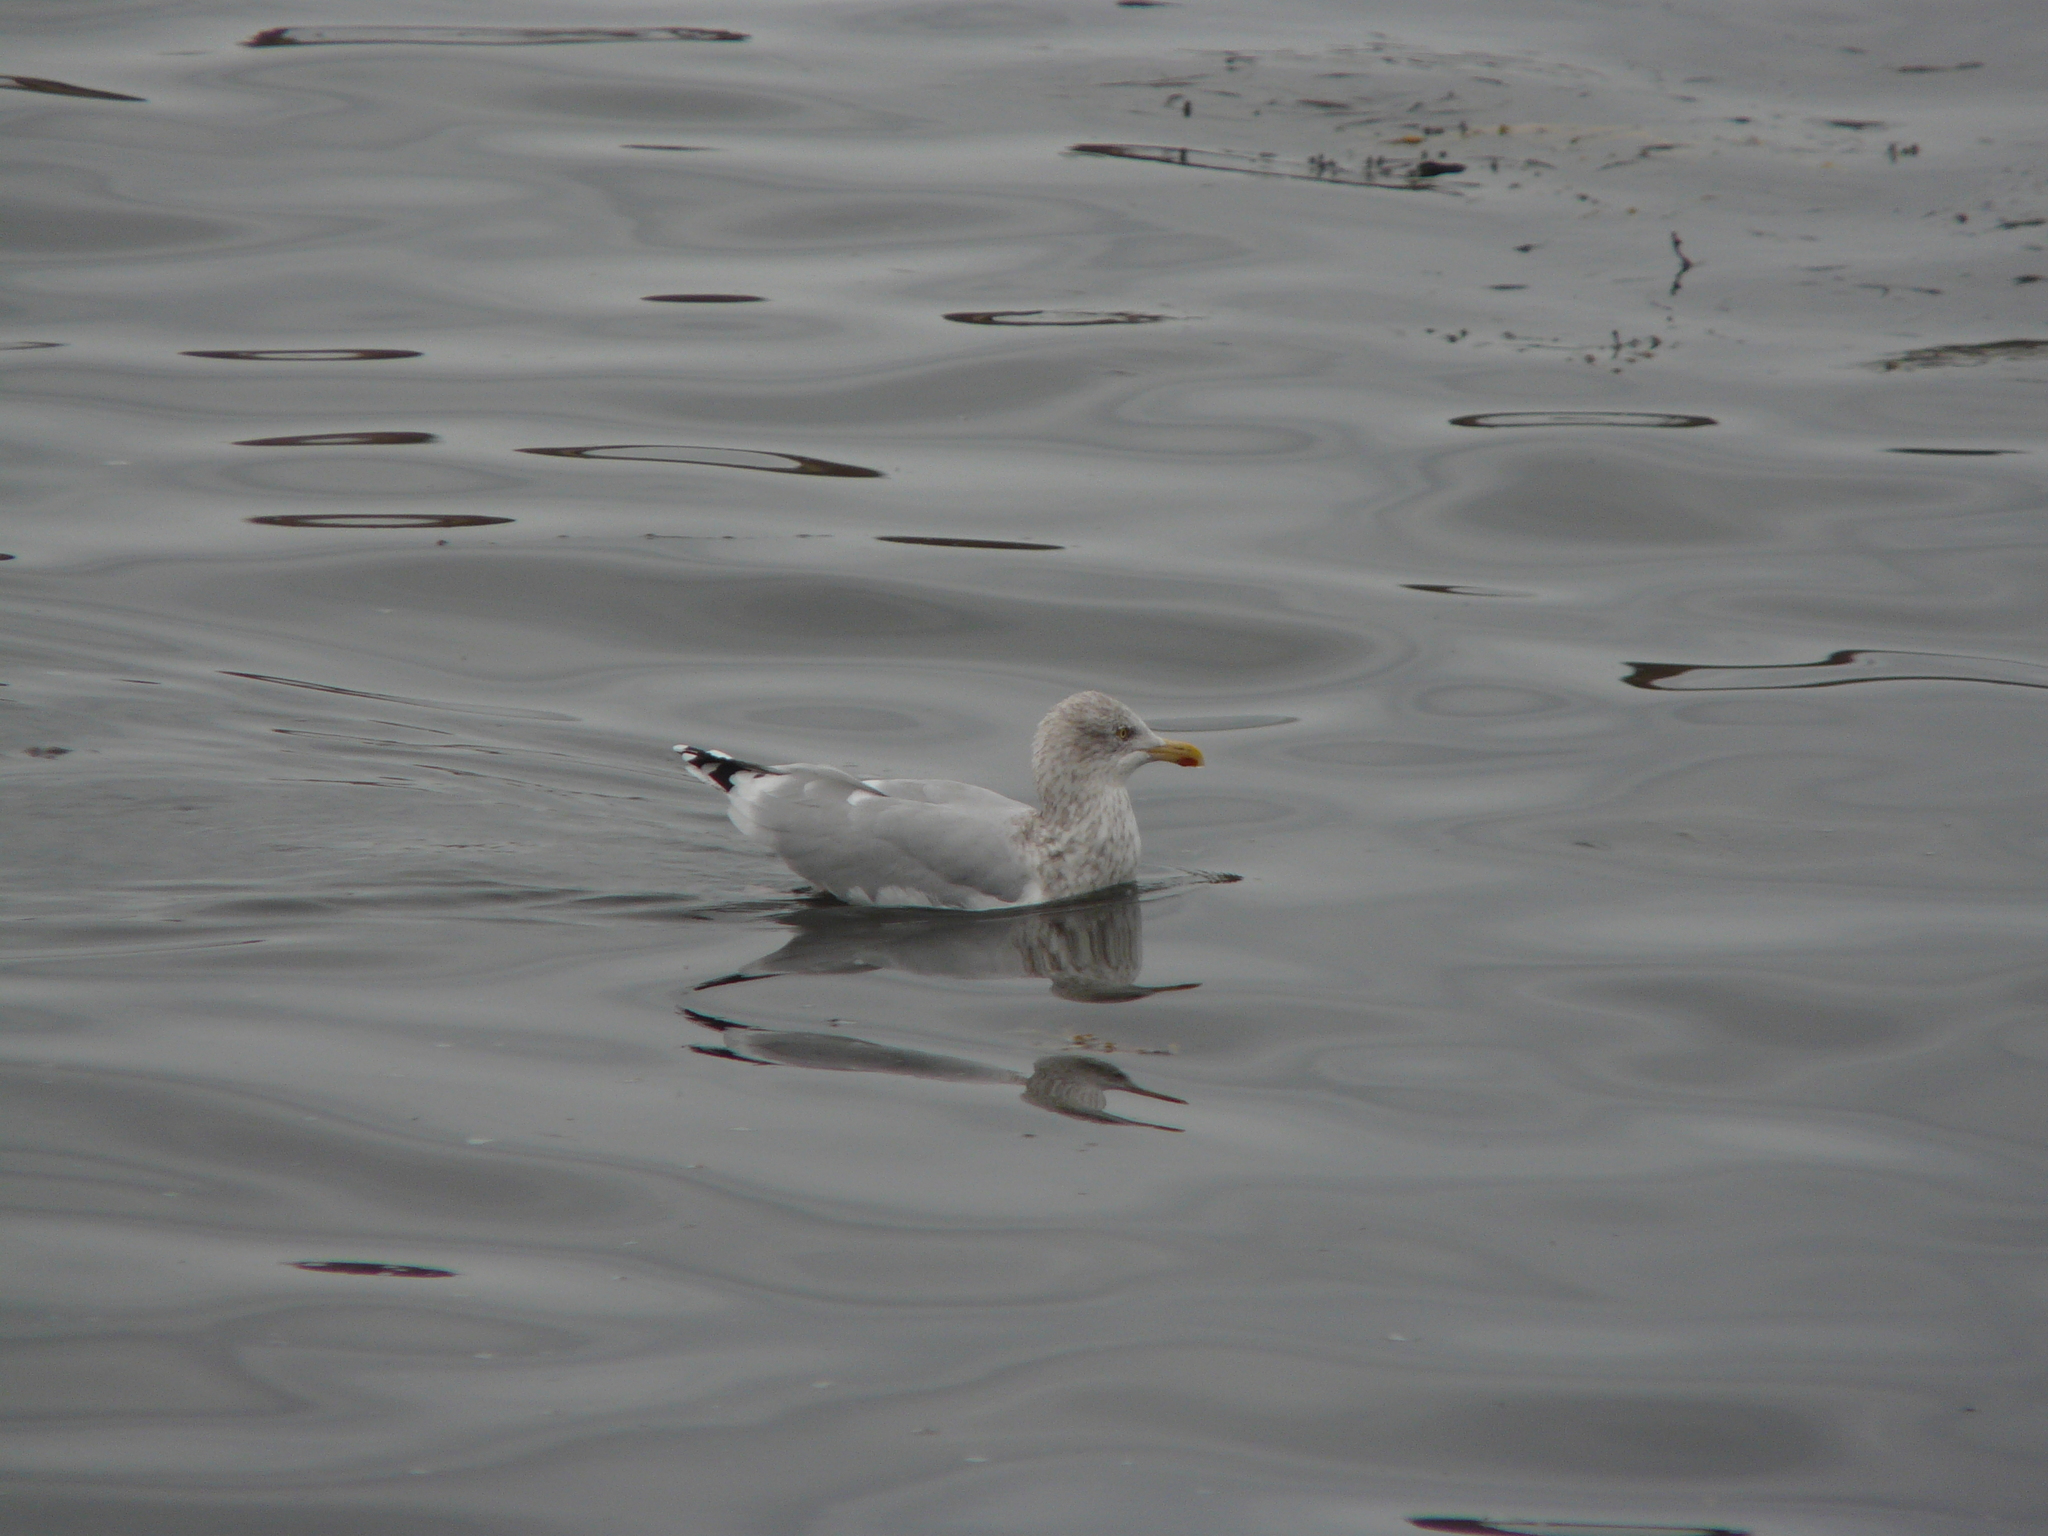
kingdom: Animalia
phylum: Chordata
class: Aves
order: Charadriiformes
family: Laridae
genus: Larus
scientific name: Larus argentatus
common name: Herring gull
